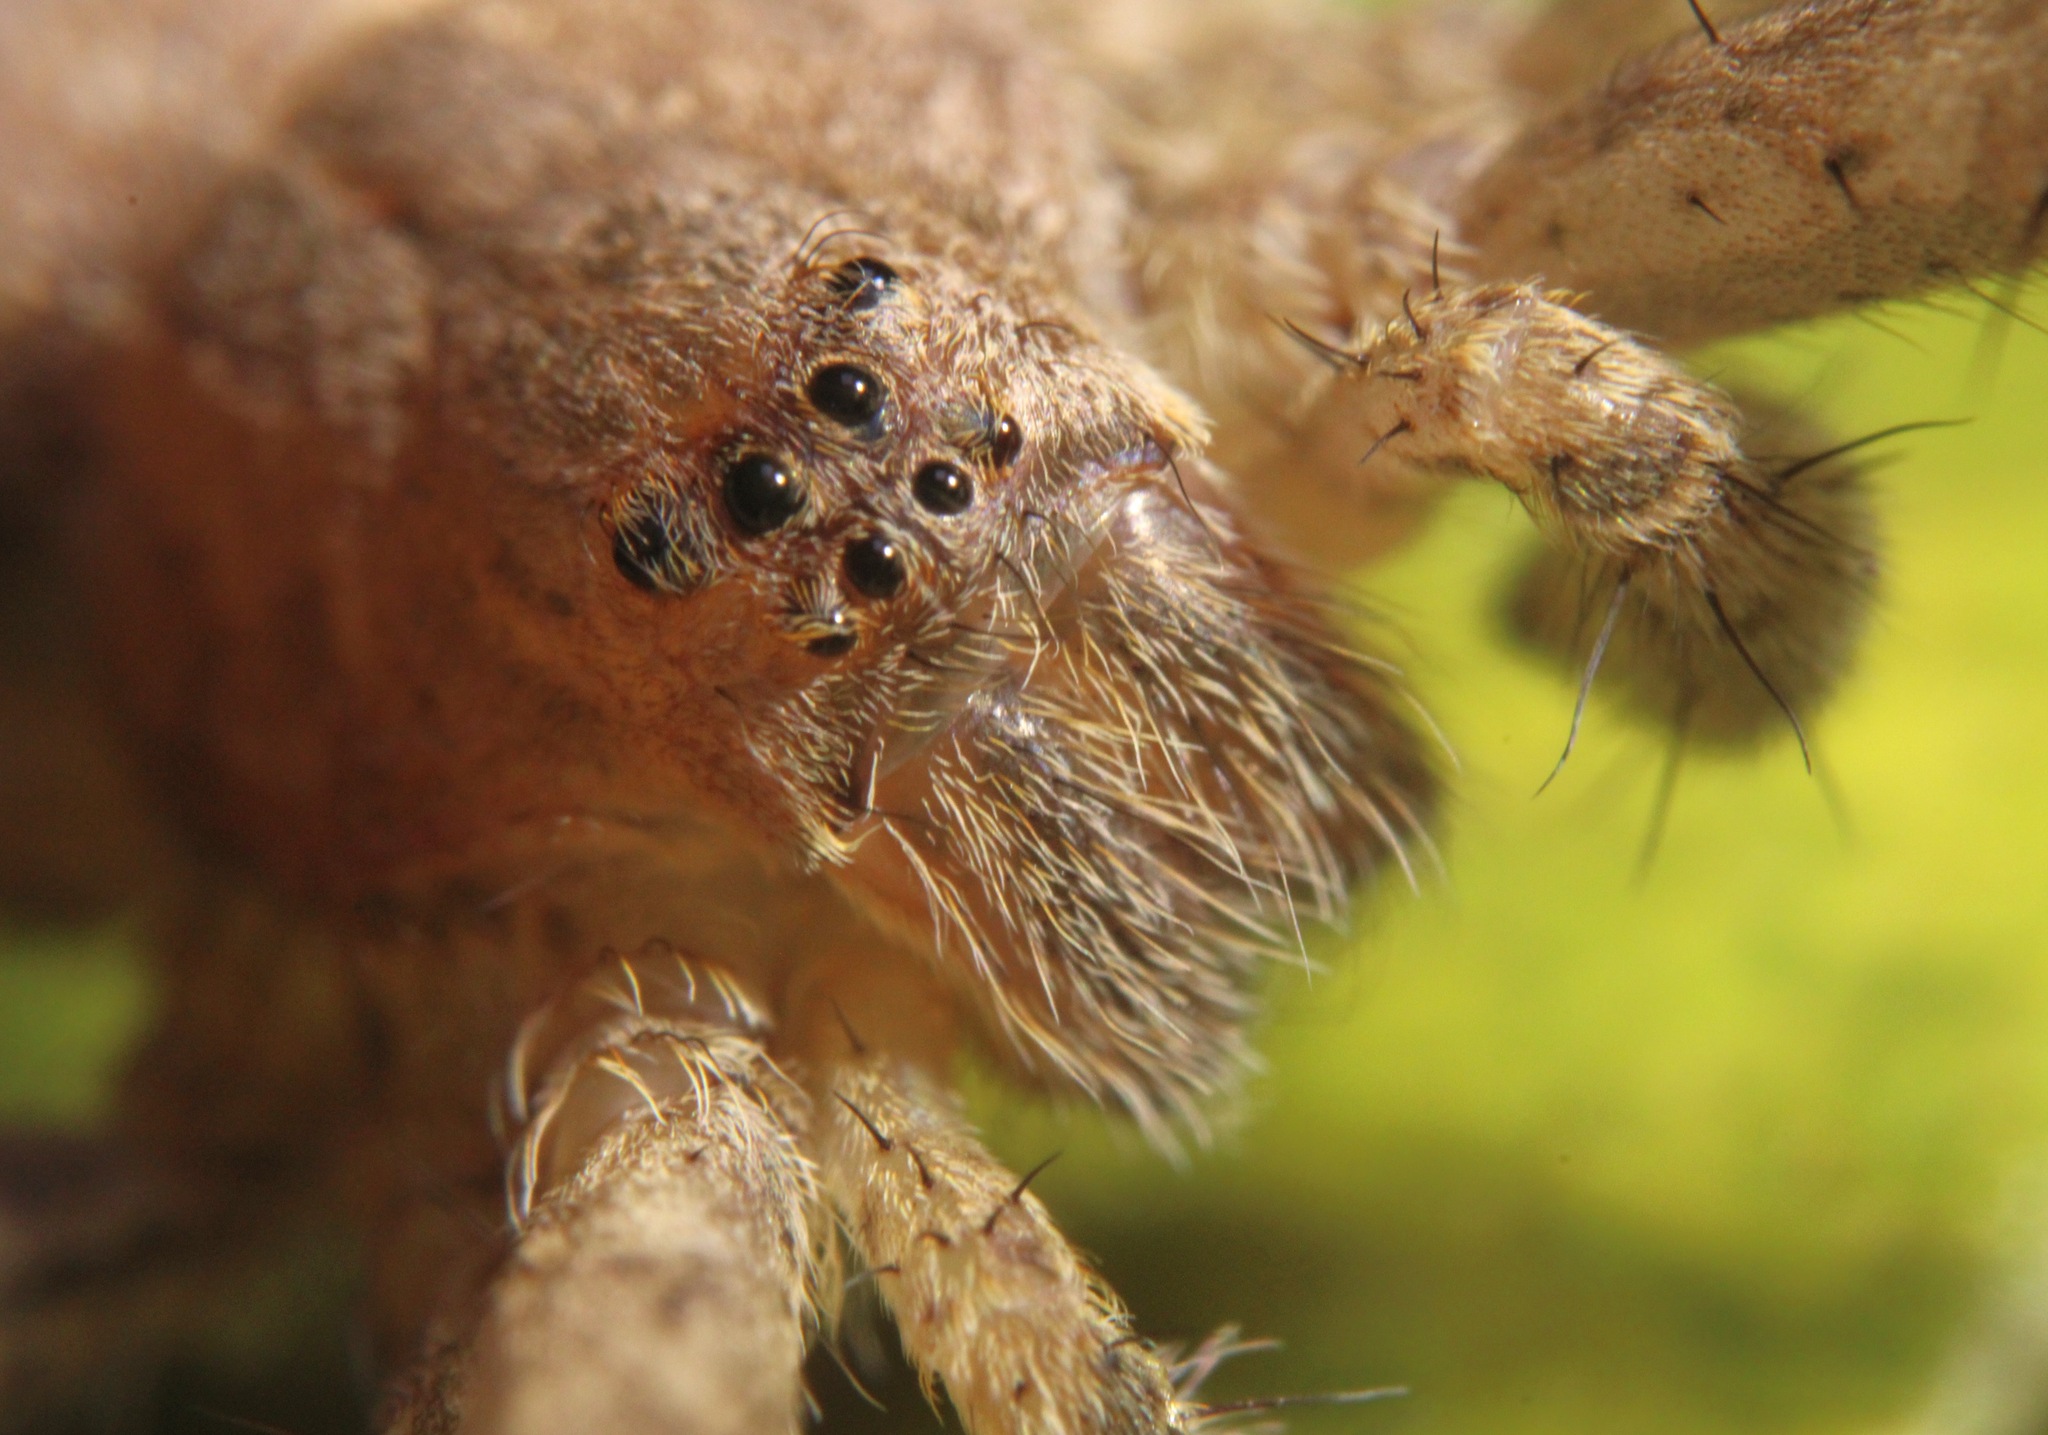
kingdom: Animalia
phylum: Arthropoda
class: Arachnida
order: Araneae
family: Pisauridae
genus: Pisaurina
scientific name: Pisaurina mira
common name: American nursery web spider
